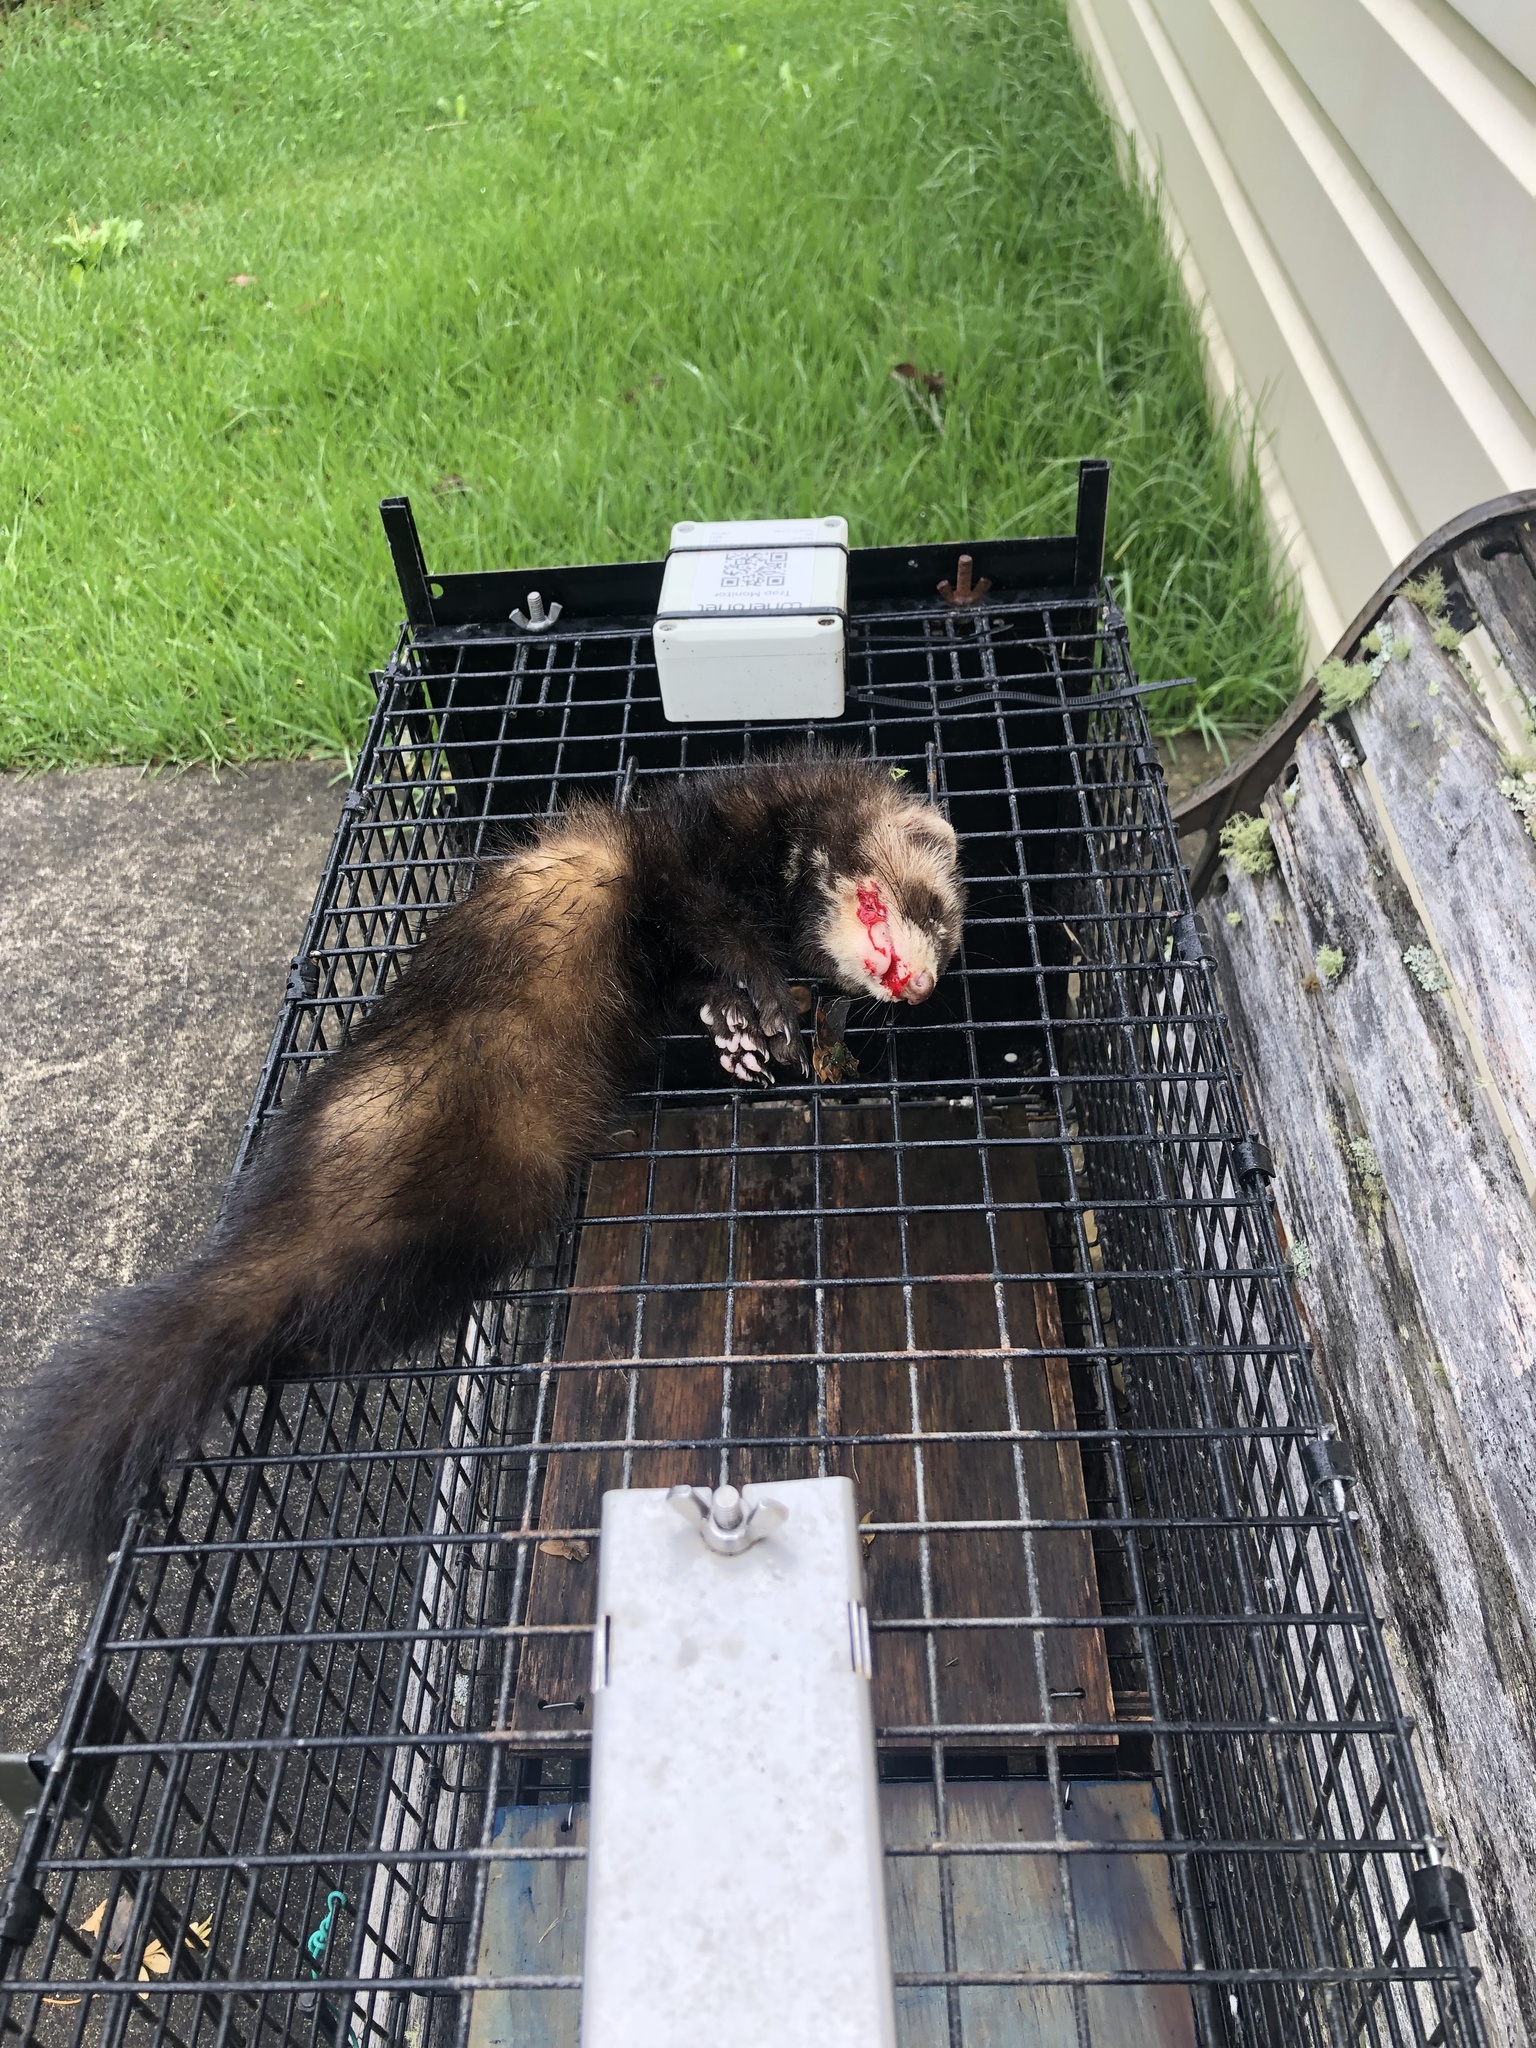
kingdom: Animalia
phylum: Chordata
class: Mammalia
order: Carnivora
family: Mustelidae
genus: Mustela
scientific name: Mustela putorius
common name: European polecat
